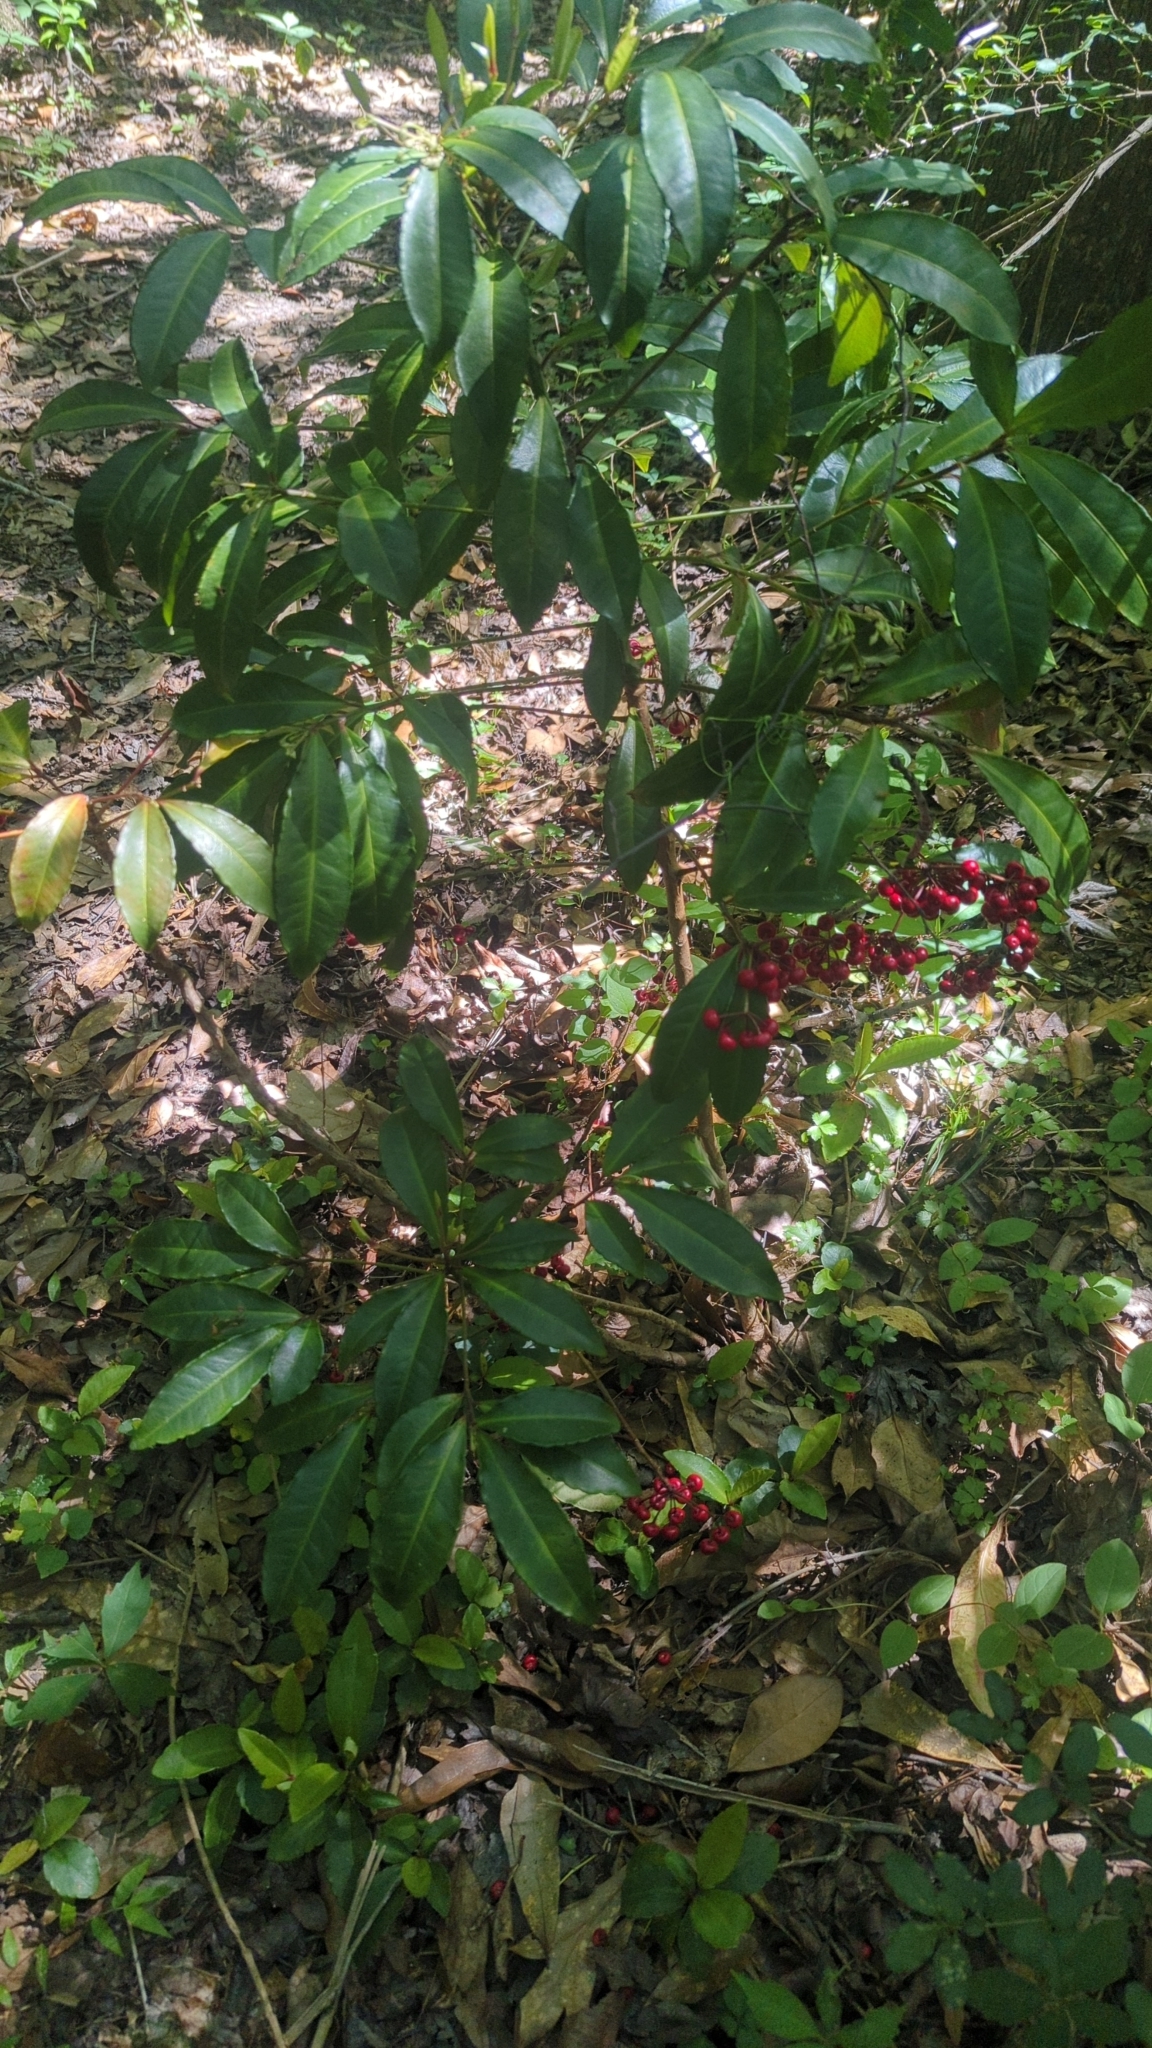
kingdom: Plantae
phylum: Tracheophyta
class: Magnoliopsida
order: Ericales
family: Primulaceae
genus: Ardisia
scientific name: Ardisia crenata
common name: Hen's eyes
